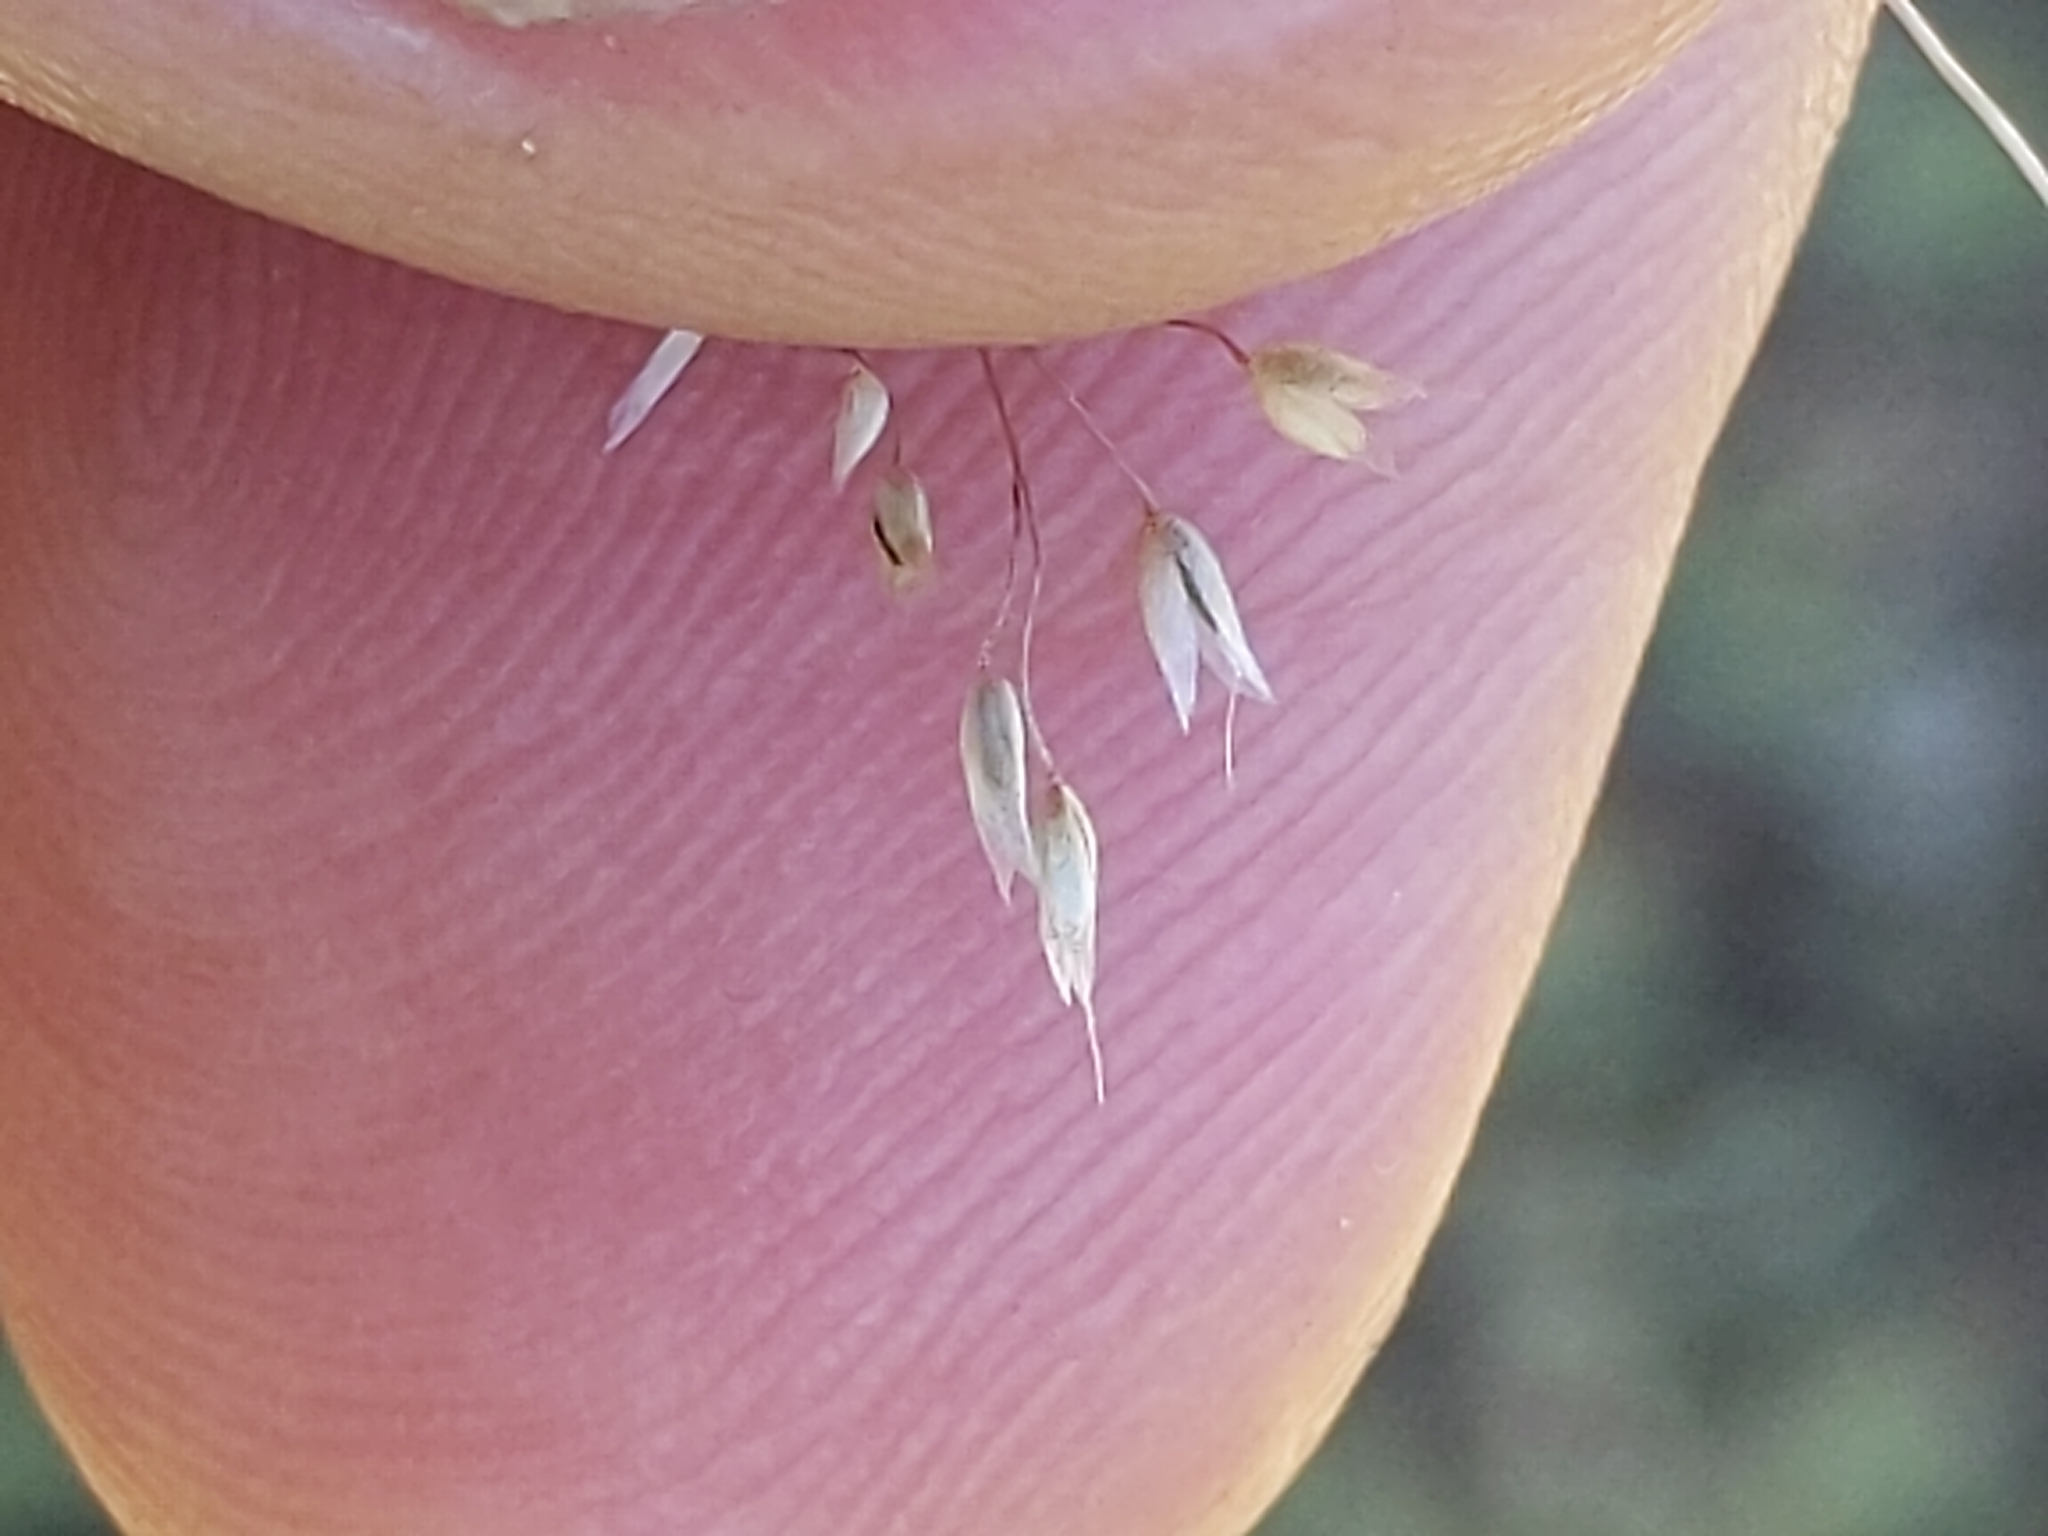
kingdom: Plantae
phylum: Tracheophyta
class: Liliopsida
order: Poales
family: Poaceae
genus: Aira
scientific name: Aira caryophyllea
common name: Silver hairgrass
